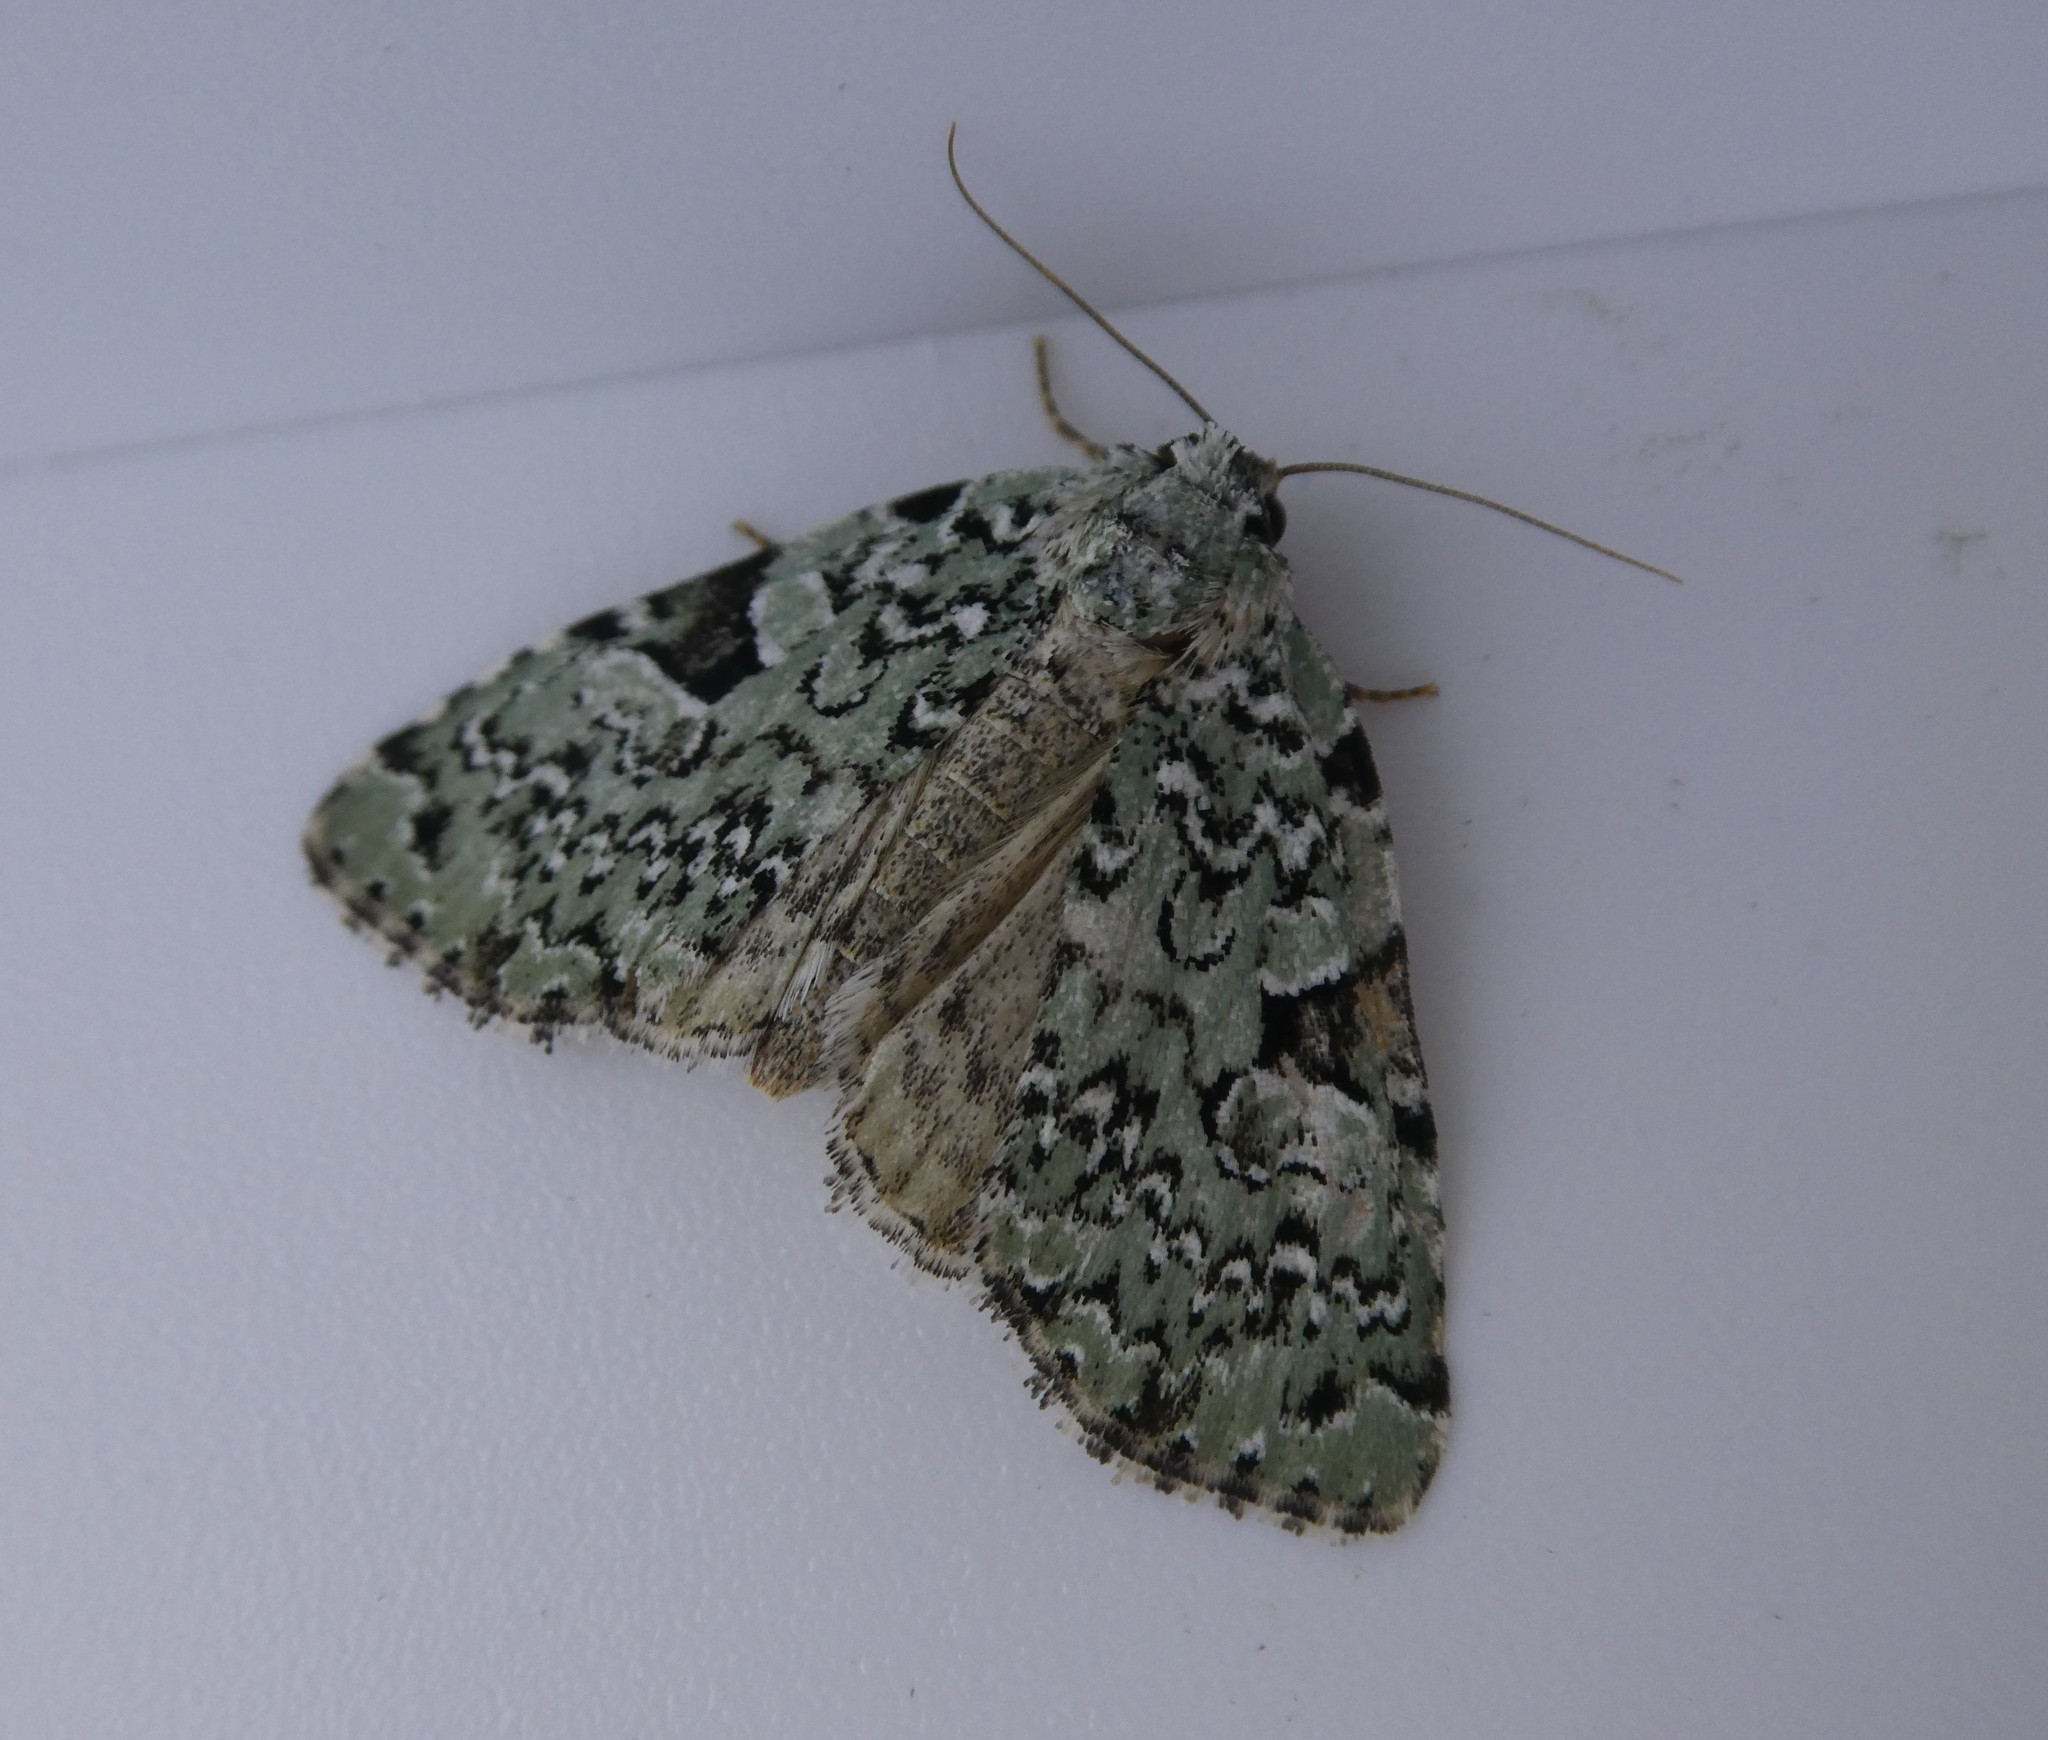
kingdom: Animalia
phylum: Arthropoda
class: Insecta
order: Lepidoptera
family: Noctuidae
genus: Leuconycta
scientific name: Leuconycta diphteroides
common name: Green leuconycta moth
